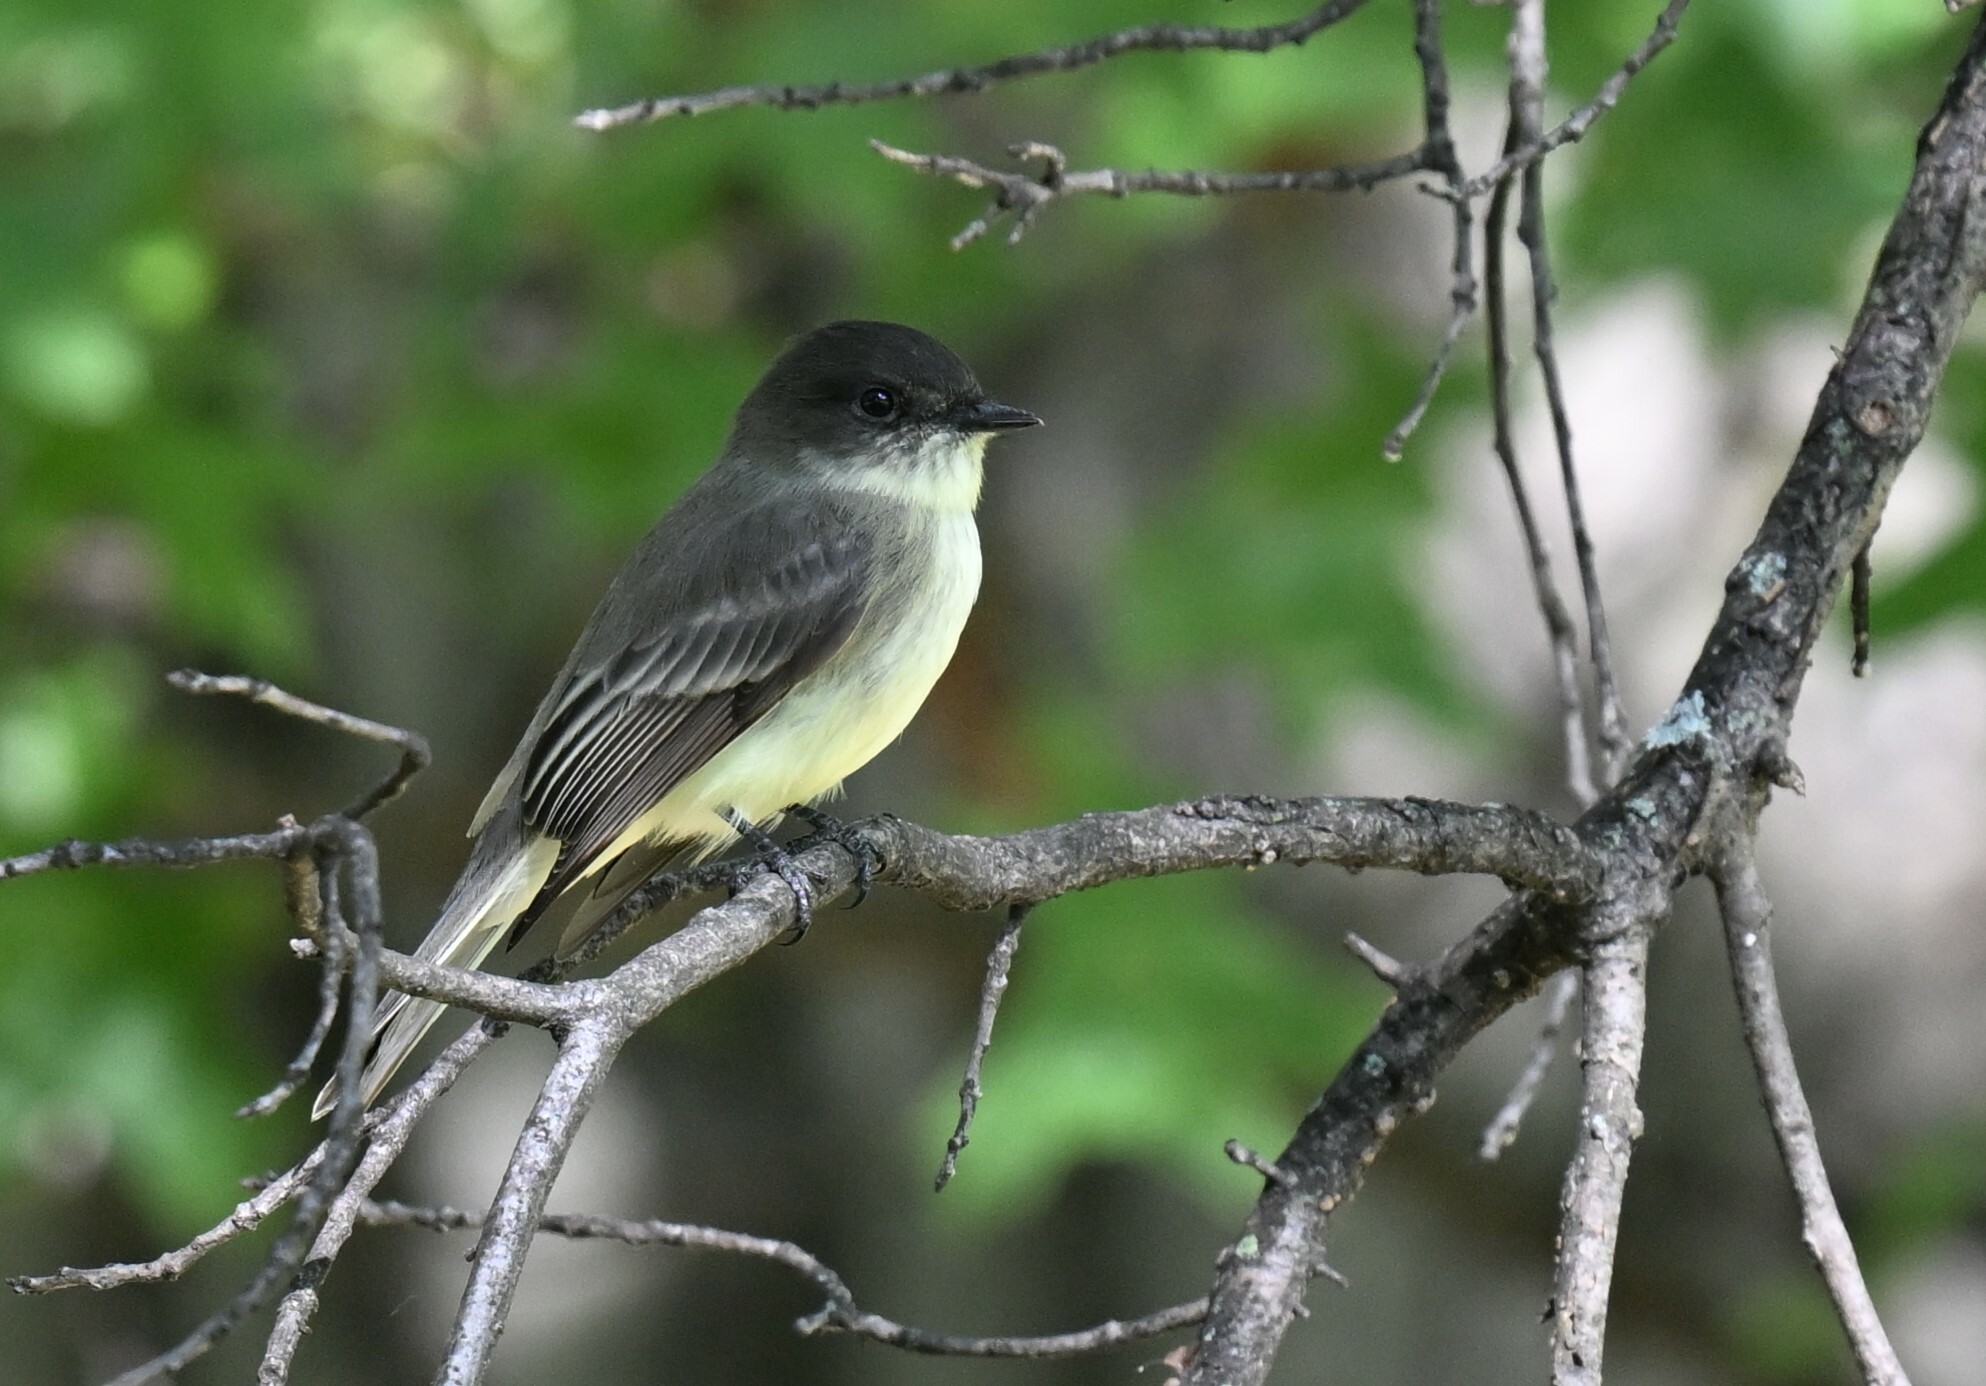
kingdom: Animalia
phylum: Chordata
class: Aves
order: Passeriformes
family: Tyrannidae
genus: Sayornis
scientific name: Sayornis phoebe
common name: Eastern phoebe
